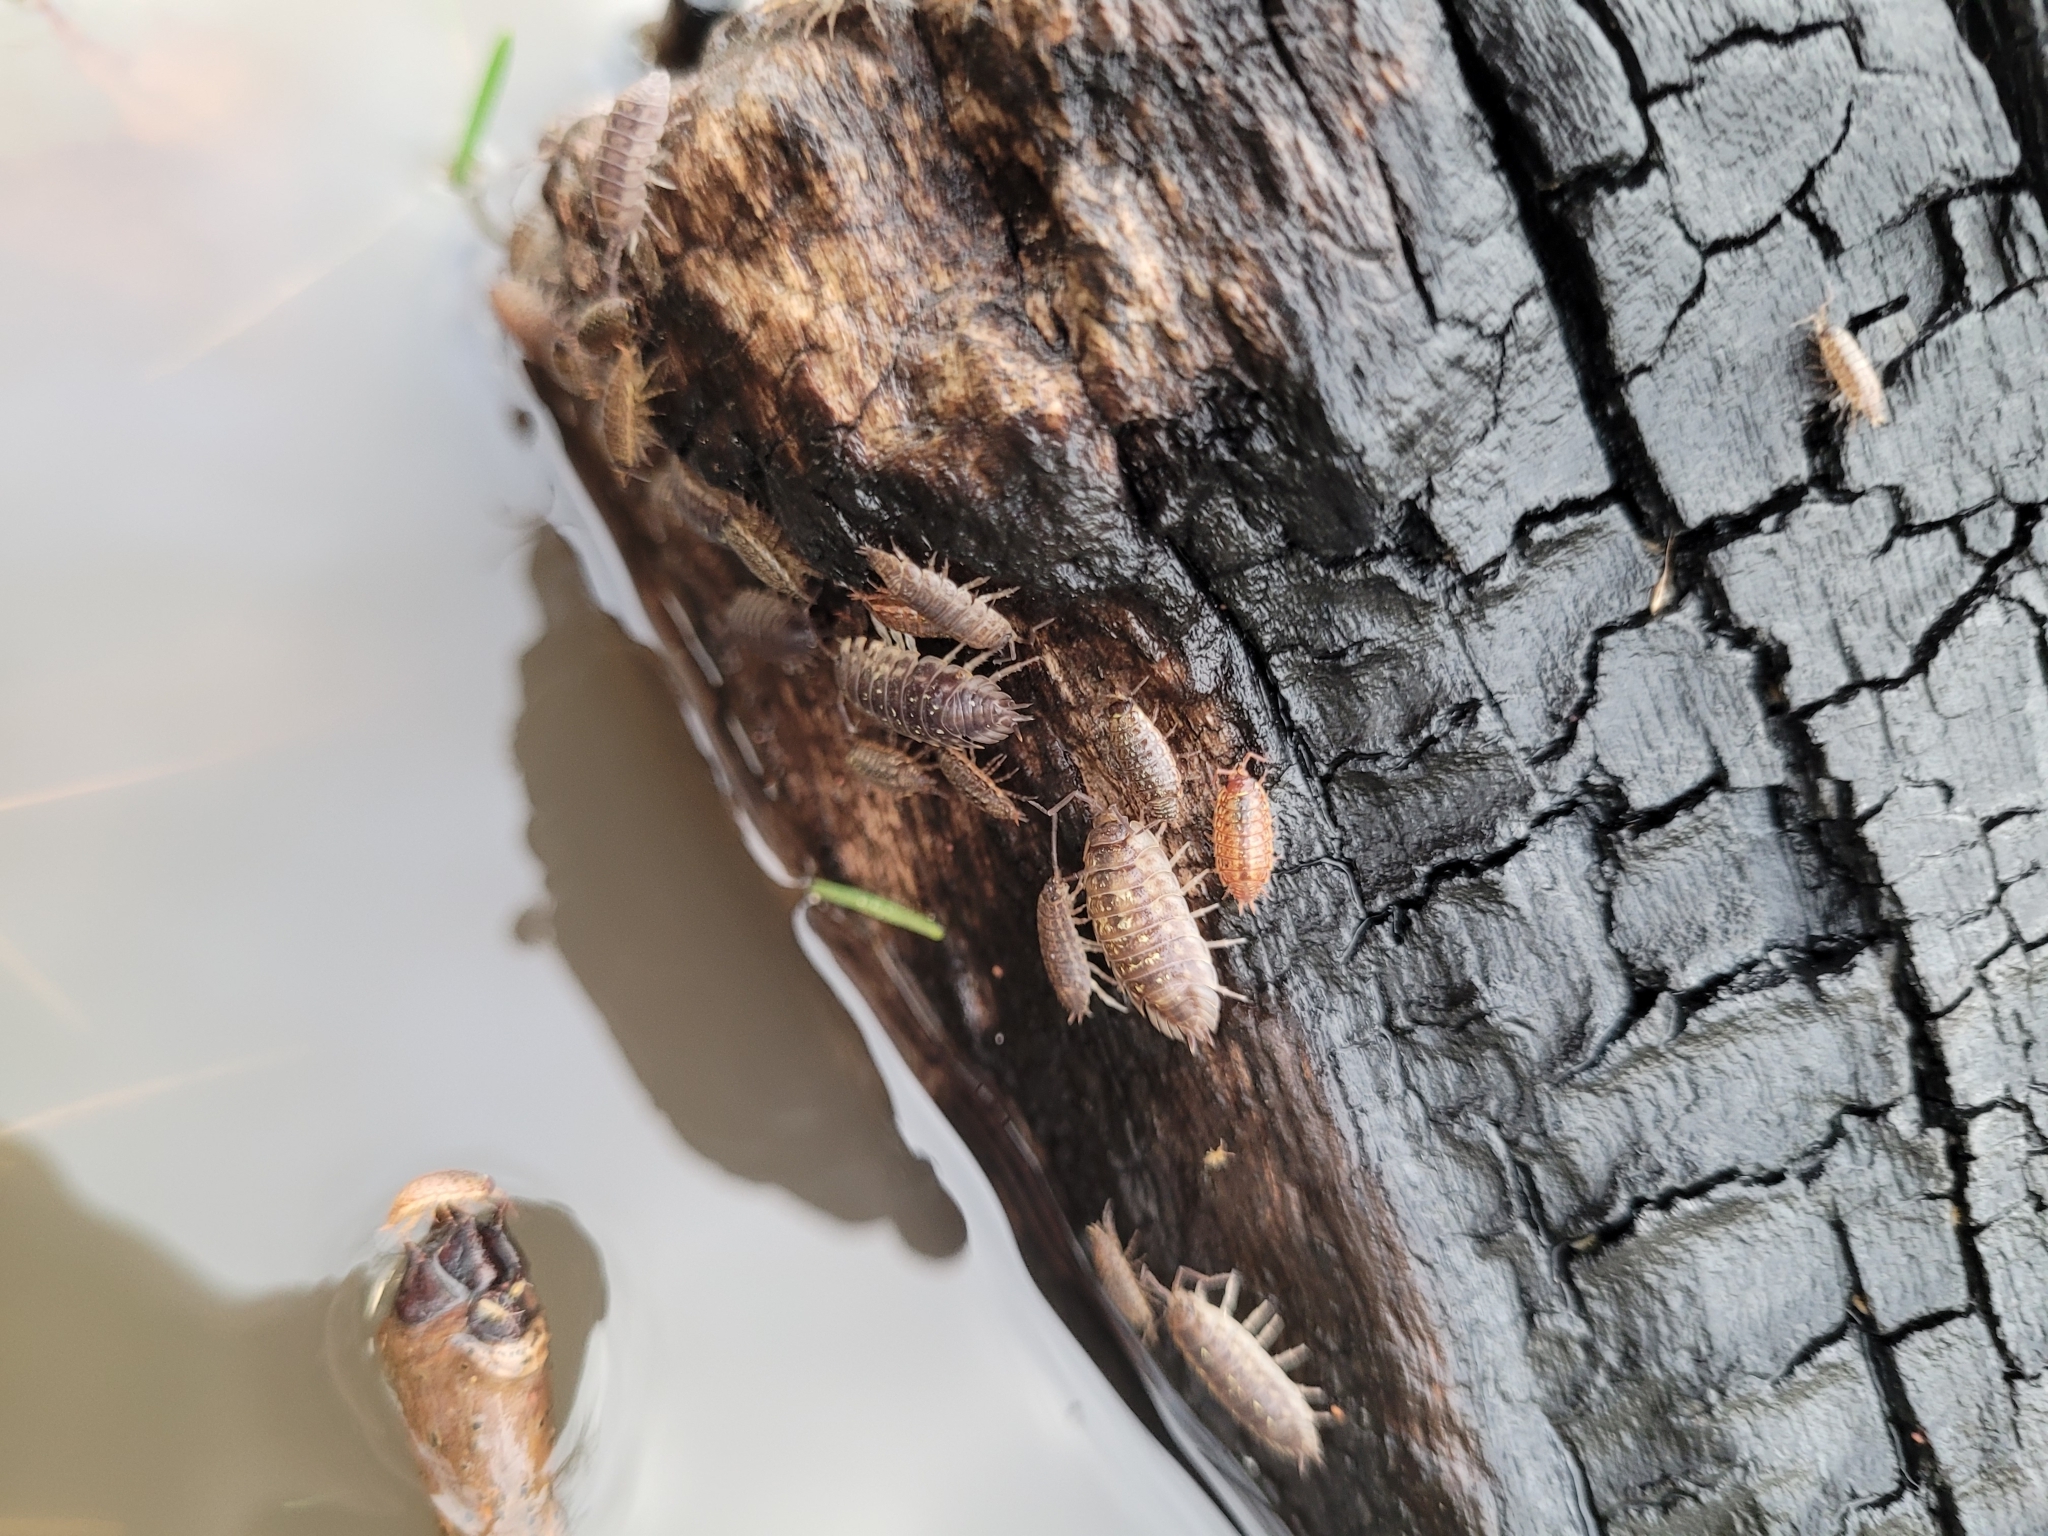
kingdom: Animalia
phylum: Arthropoda
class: Malacostraca
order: Isopoda
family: Philosciidae
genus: Philoscia
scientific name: Philoscia muscorum
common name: Common striped woodlouse
